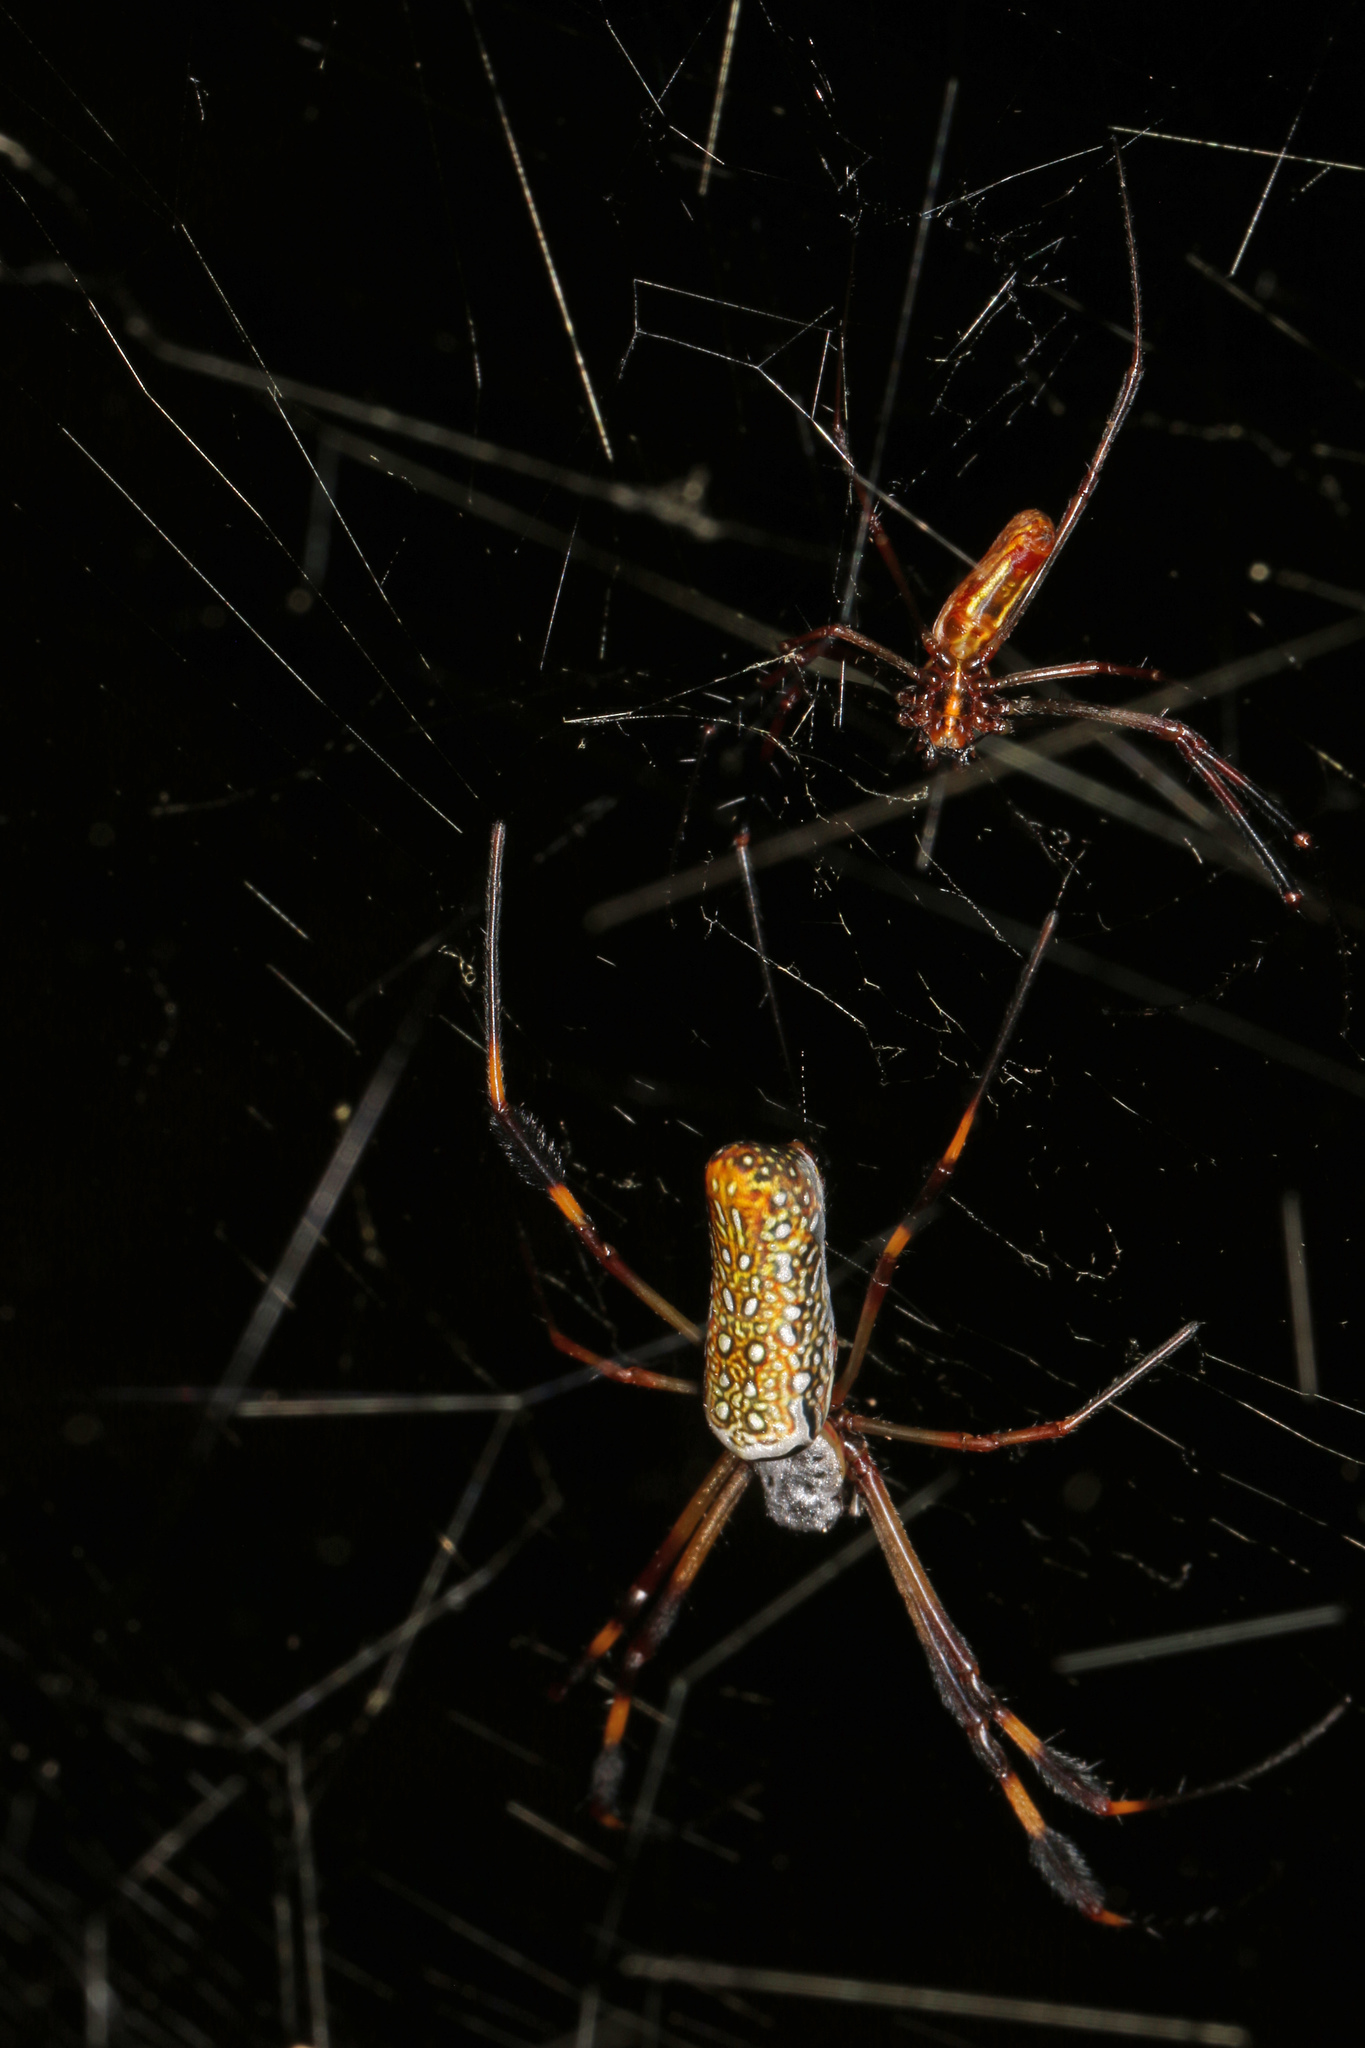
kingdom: Animalia
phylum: Arthropoda
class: Arachnida
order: Araneae
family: Araneidae
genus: Trichonephila
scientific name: Trichonephila clavipes
